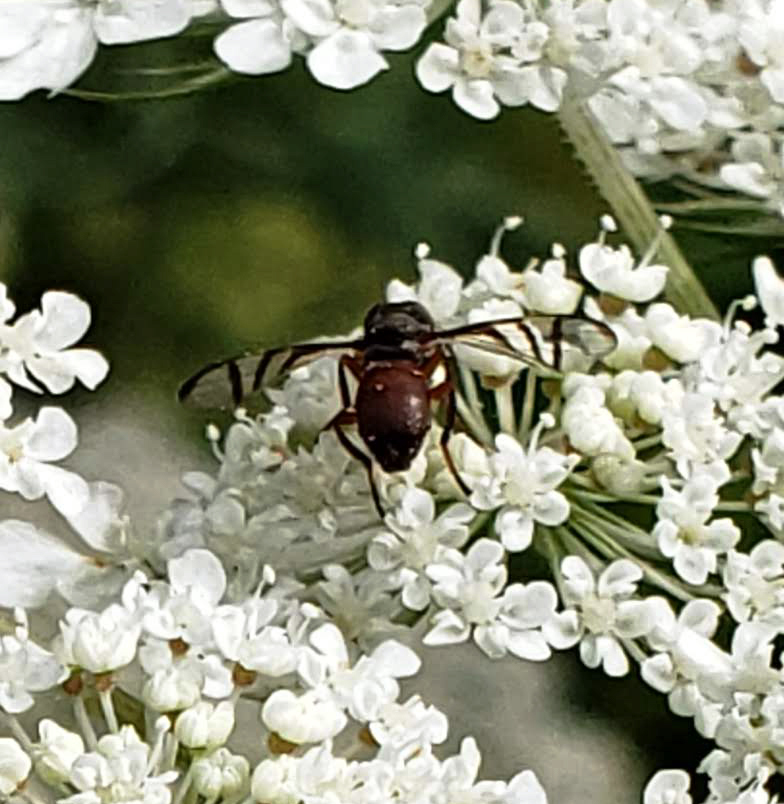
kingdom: Animalia
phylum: Arthropoda
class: Insecta
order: Diptera
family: Platystomatidae
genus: Rivellia
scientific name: Rivellia
